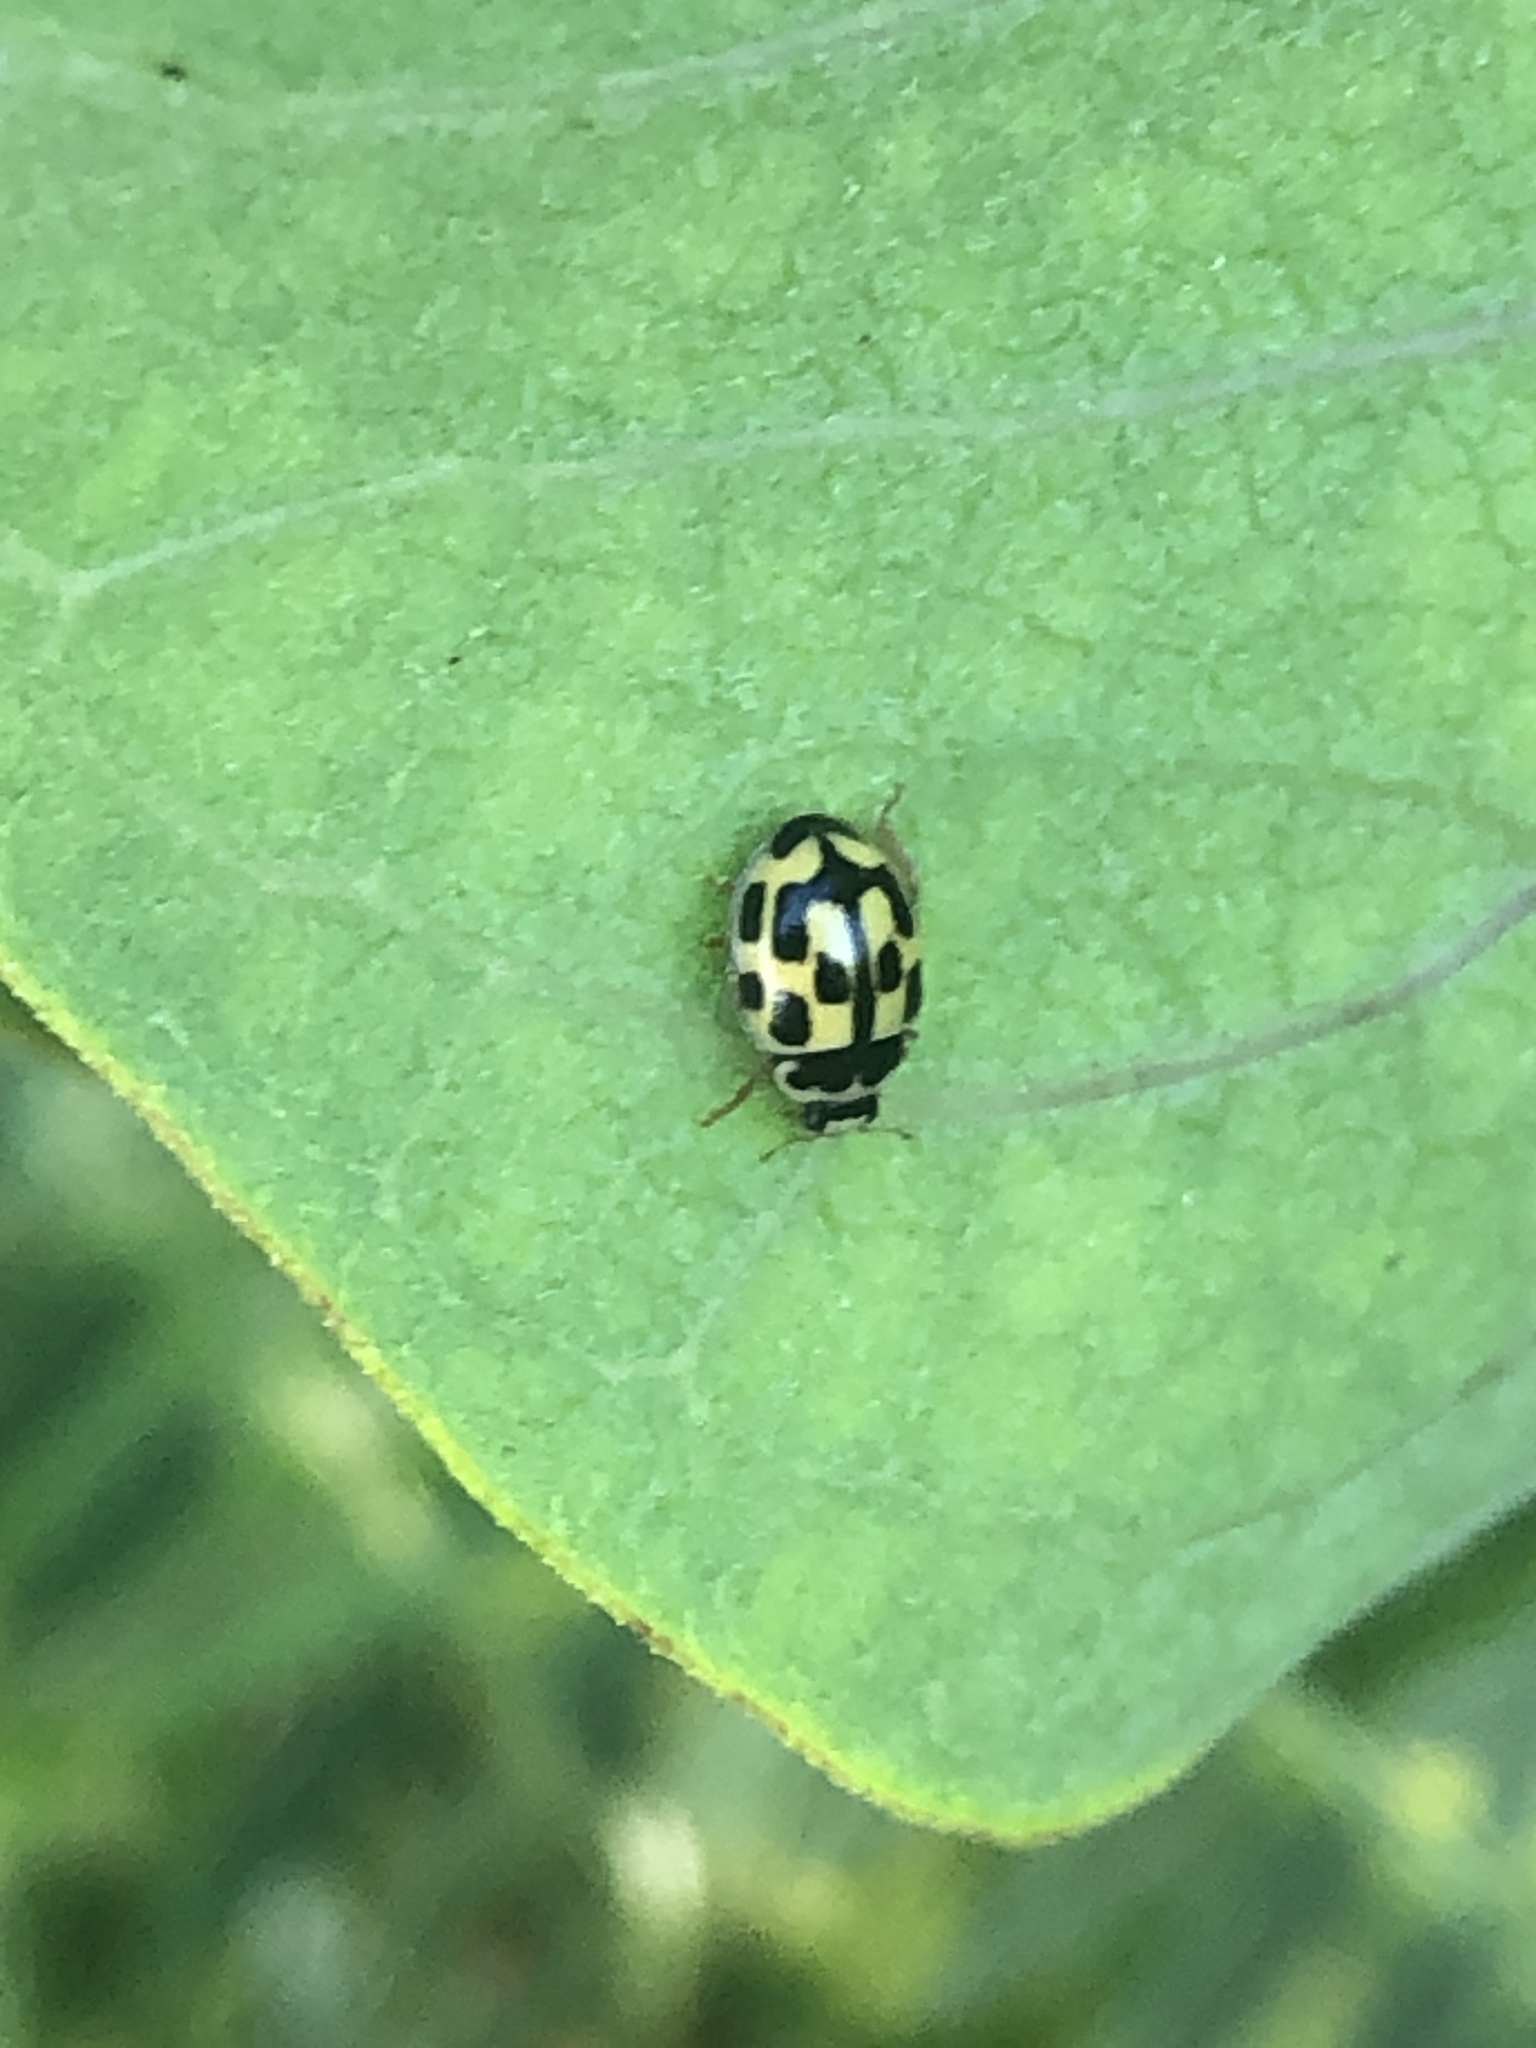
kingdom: Animalia
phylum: Arthropoda
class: Insecta
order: Coleoptera
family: Coccinellidae
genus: Propylaea
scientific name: Propylaea quatuordecimpunctata
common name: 14-spotted ladybird beetle
